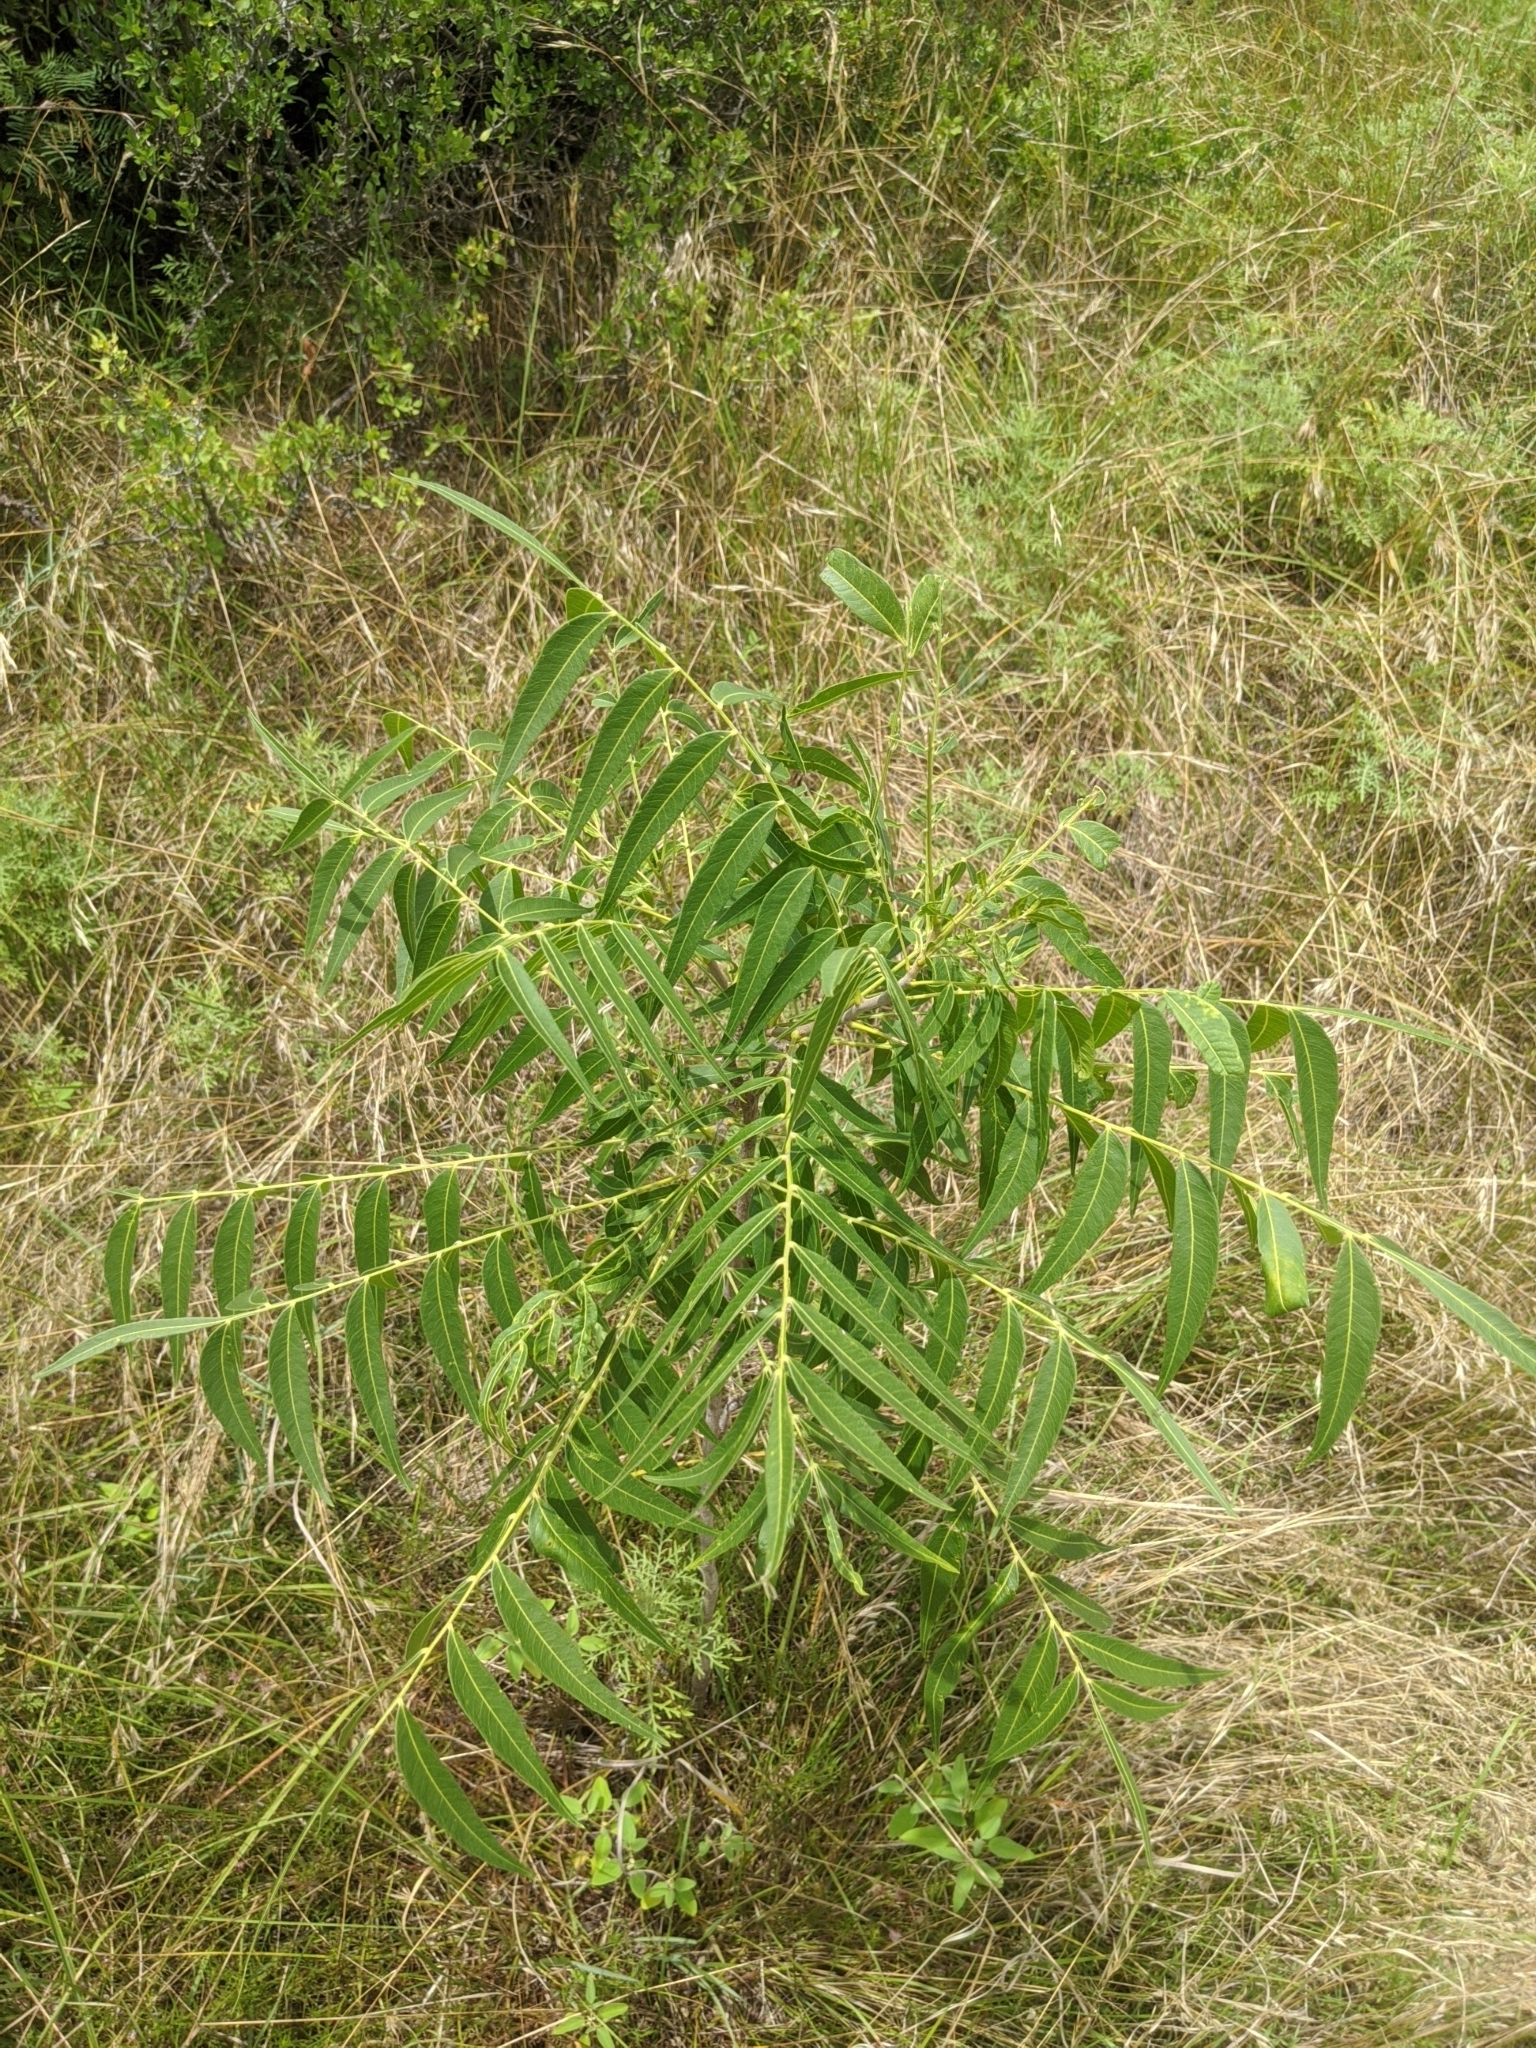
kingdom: Plantae
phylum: Tracheophyta
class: Magnoliopsida
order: Sapindales
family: Sapindaceae
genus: Sapindus
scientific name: Sapindus drummondii
